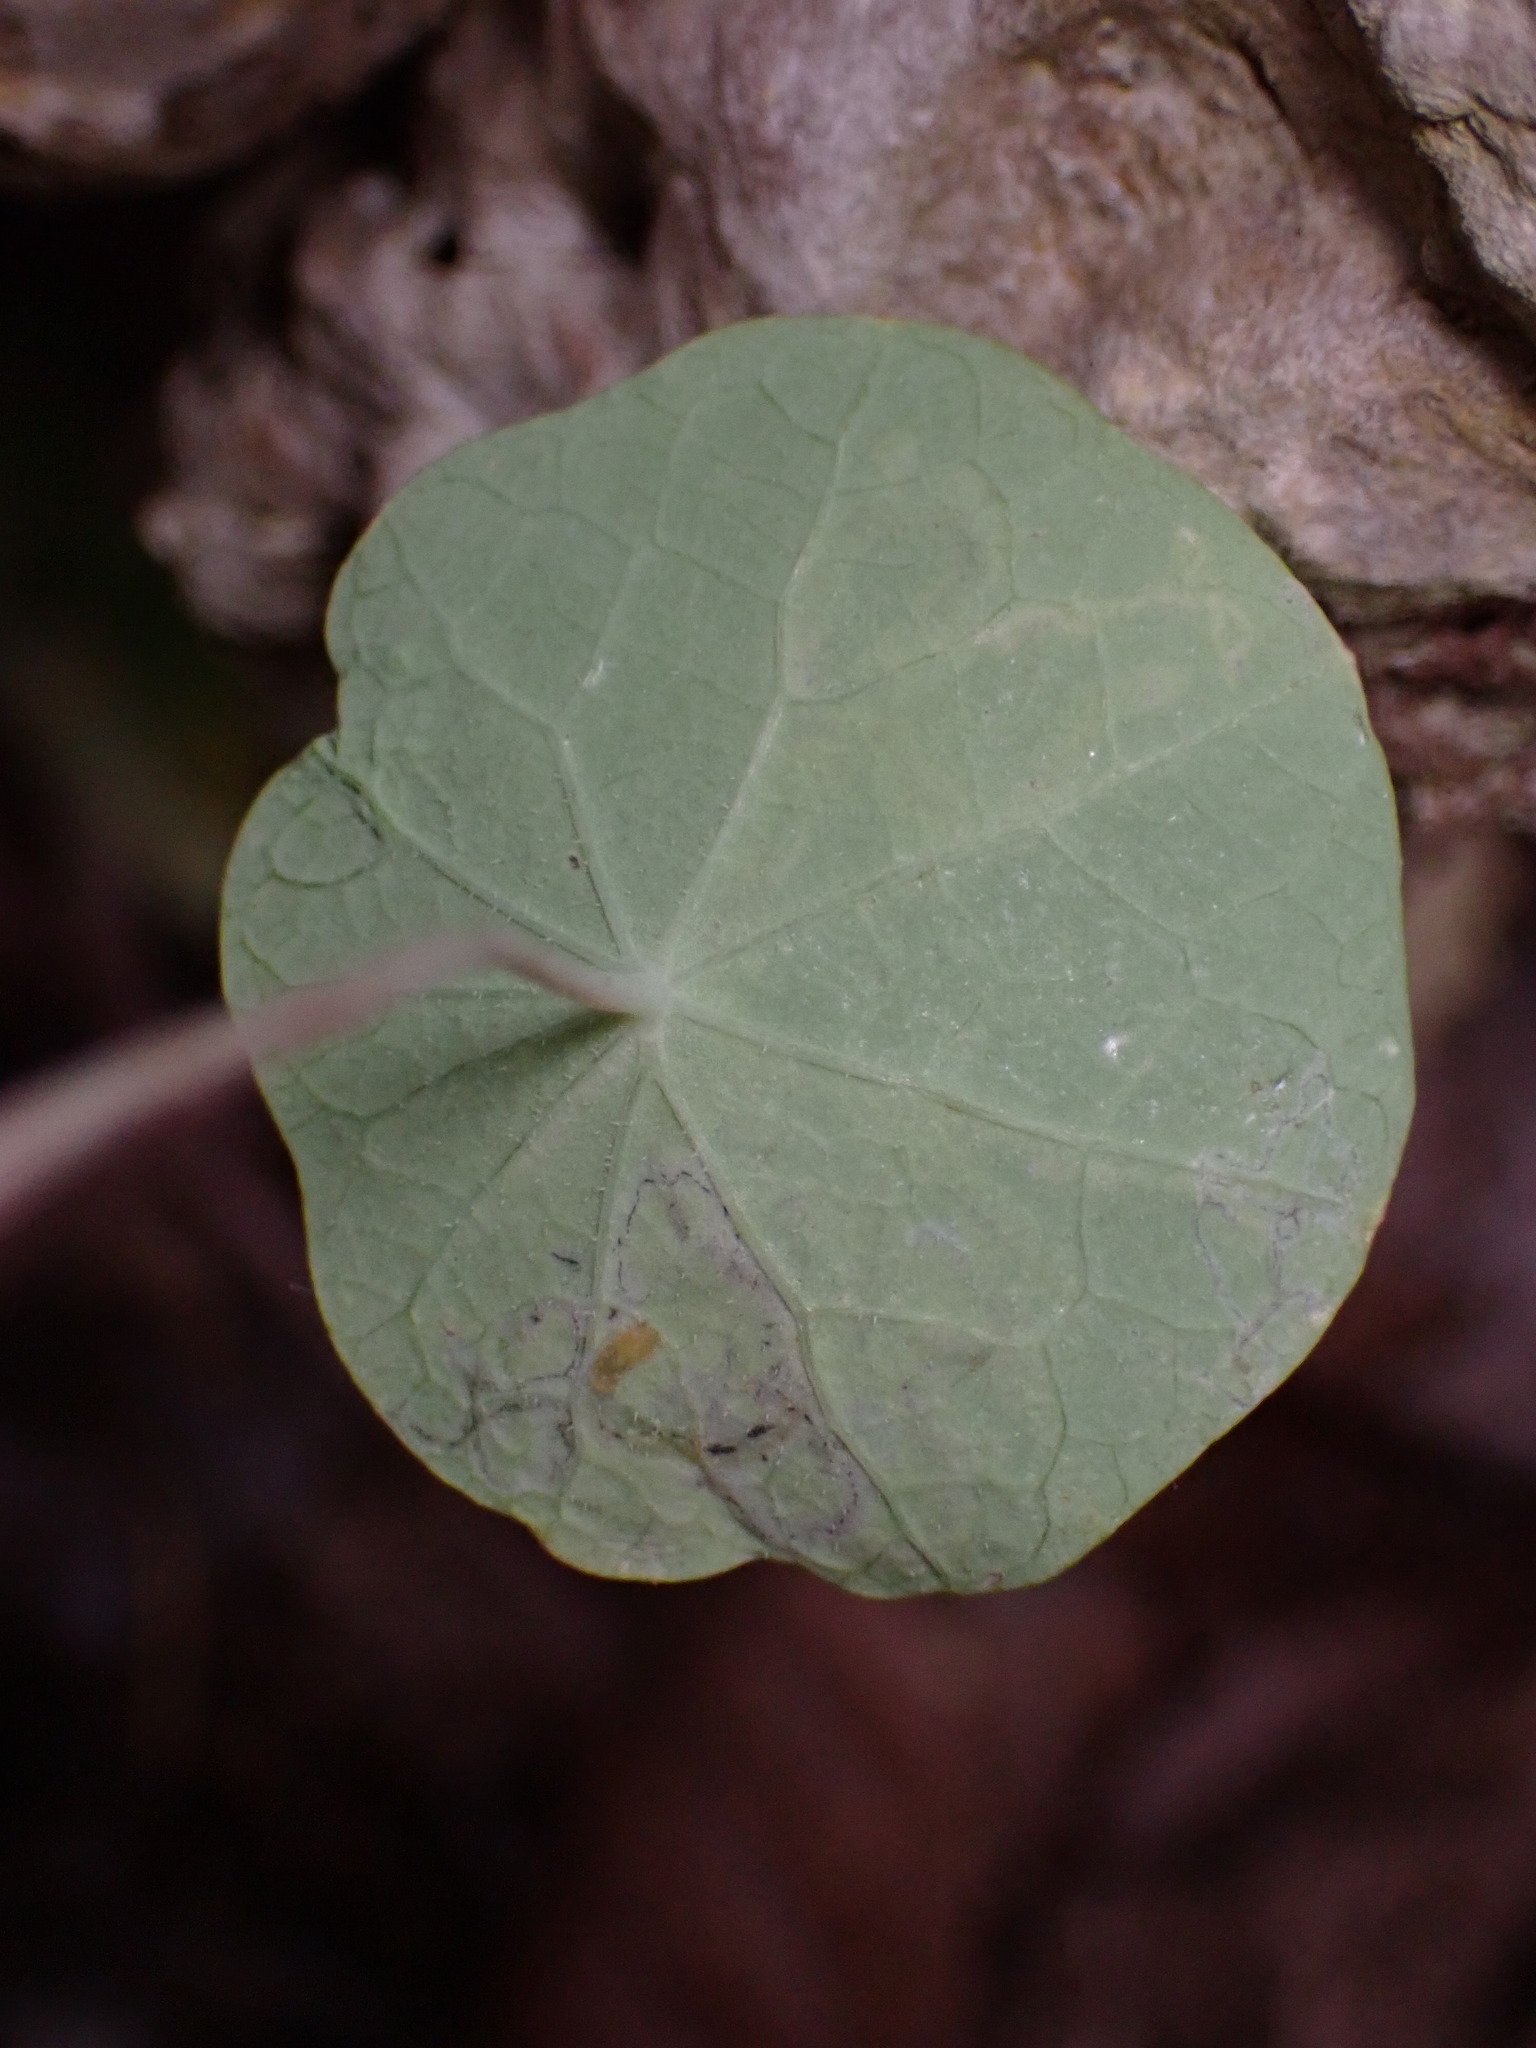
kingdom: Plantae
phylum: Tracheophyta
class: Magnoliopsida
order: Brassicales
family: Tropaeolaceae
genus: Tropaeolum
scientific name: Tropaeolum majus
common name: Nasturtium
